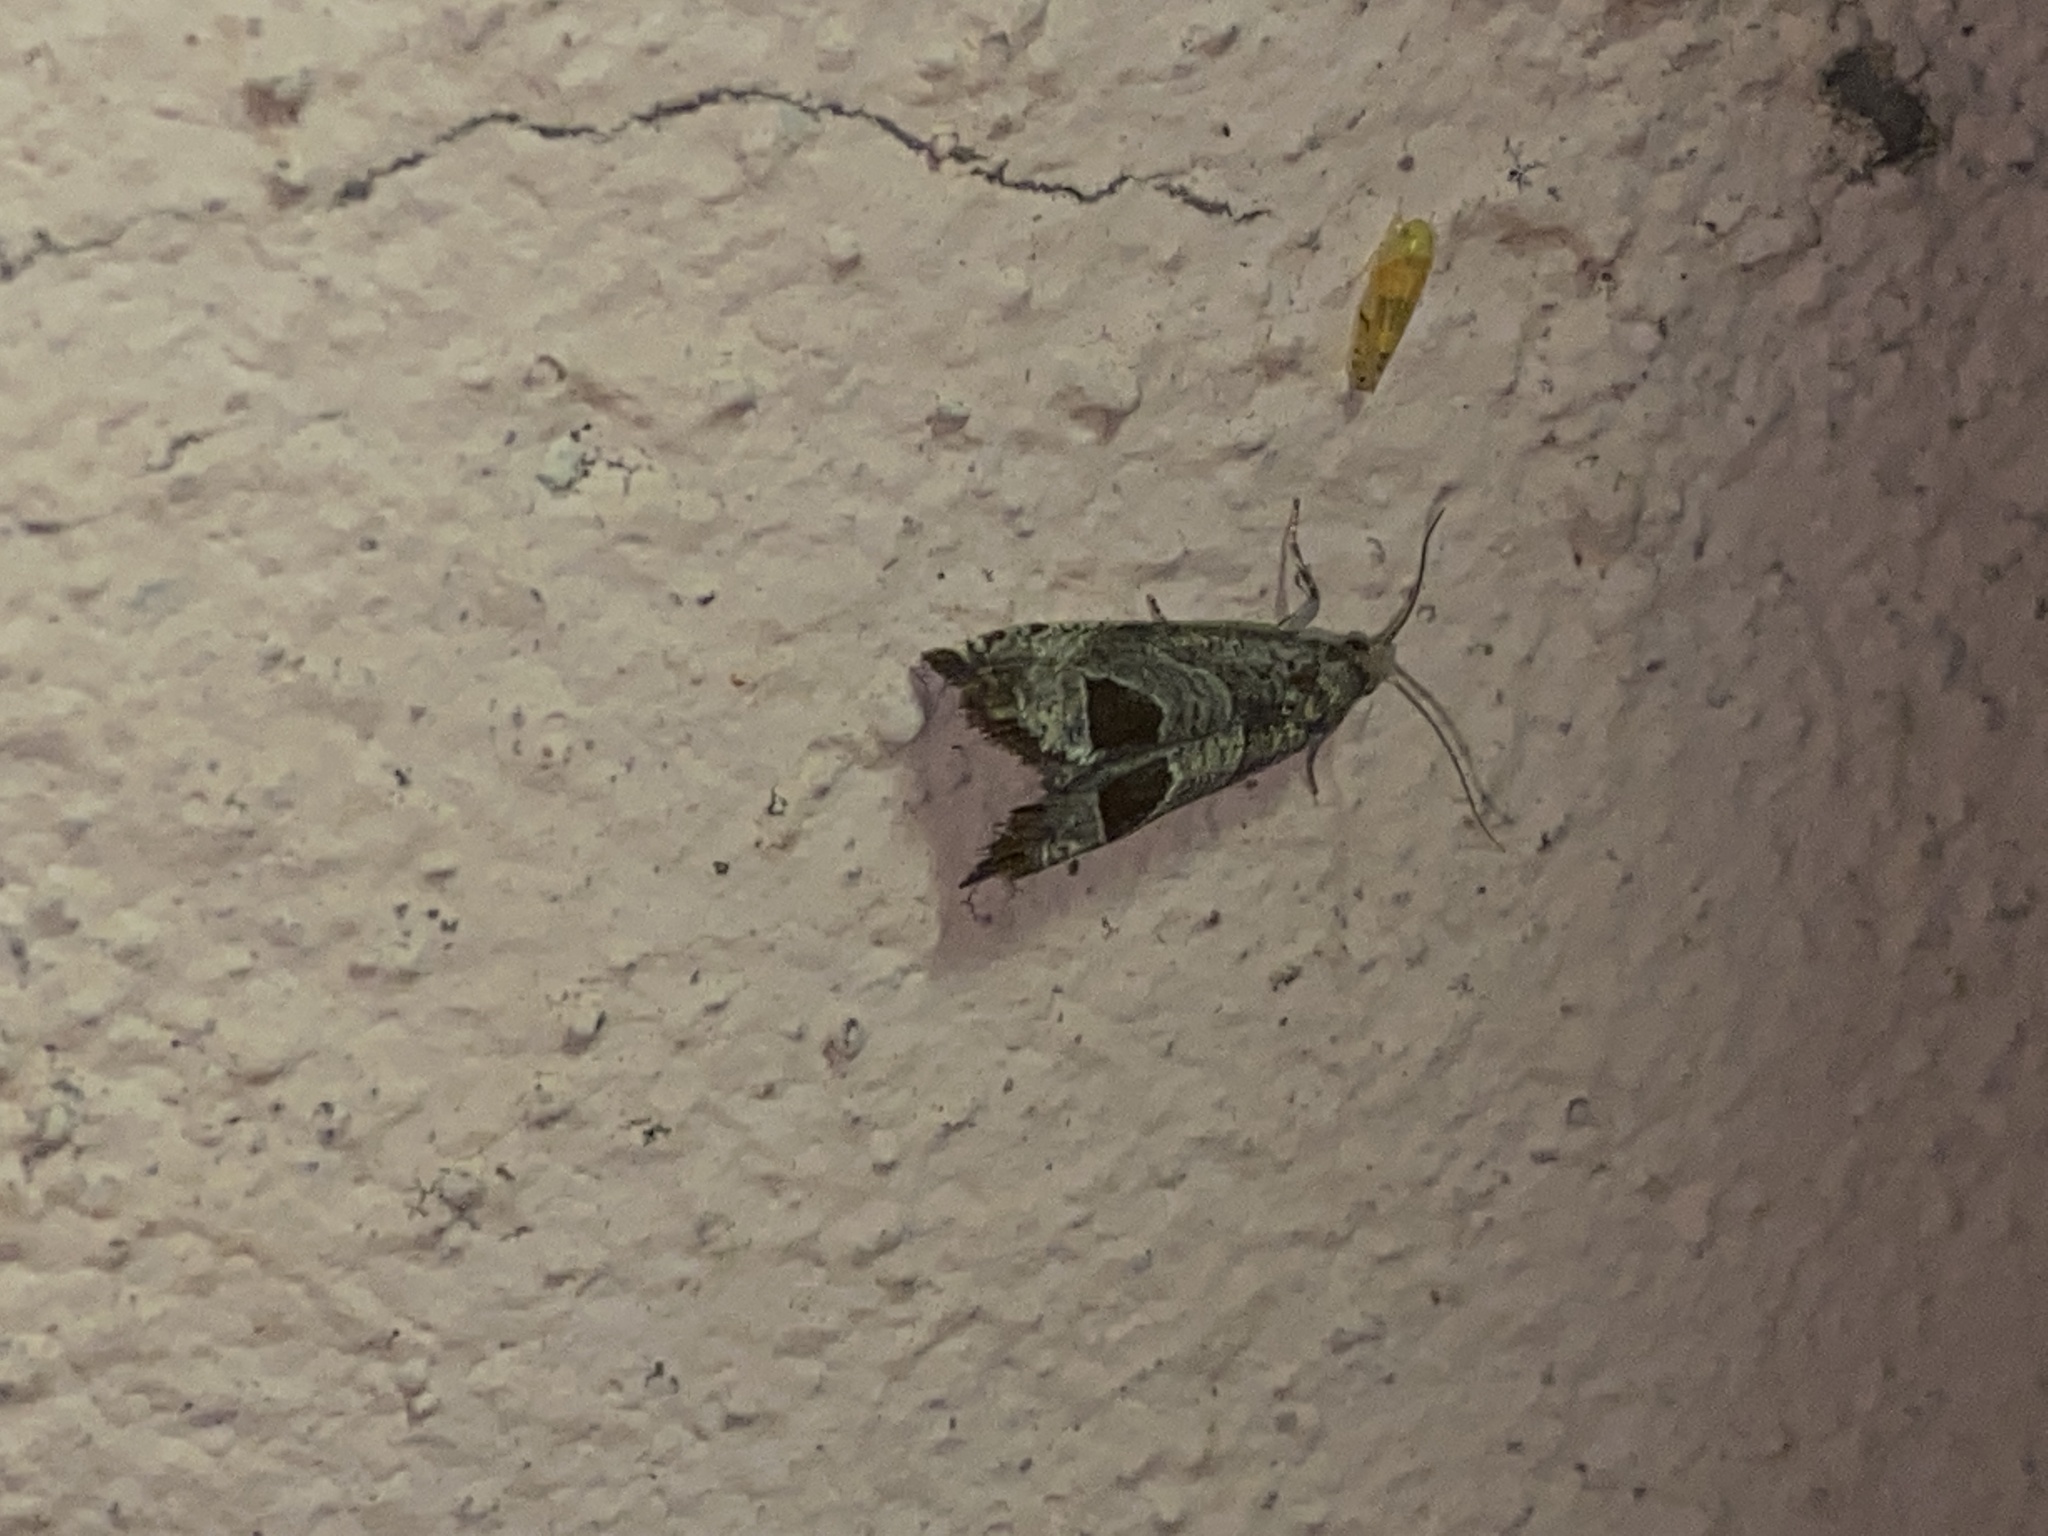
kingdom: Animalia
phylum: Arthropoda
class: Insecta
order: Lepidoptera
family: Tortricidae
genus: Notocelia
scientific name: Notocelia uddmanniana
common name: Bramble shoot moth
